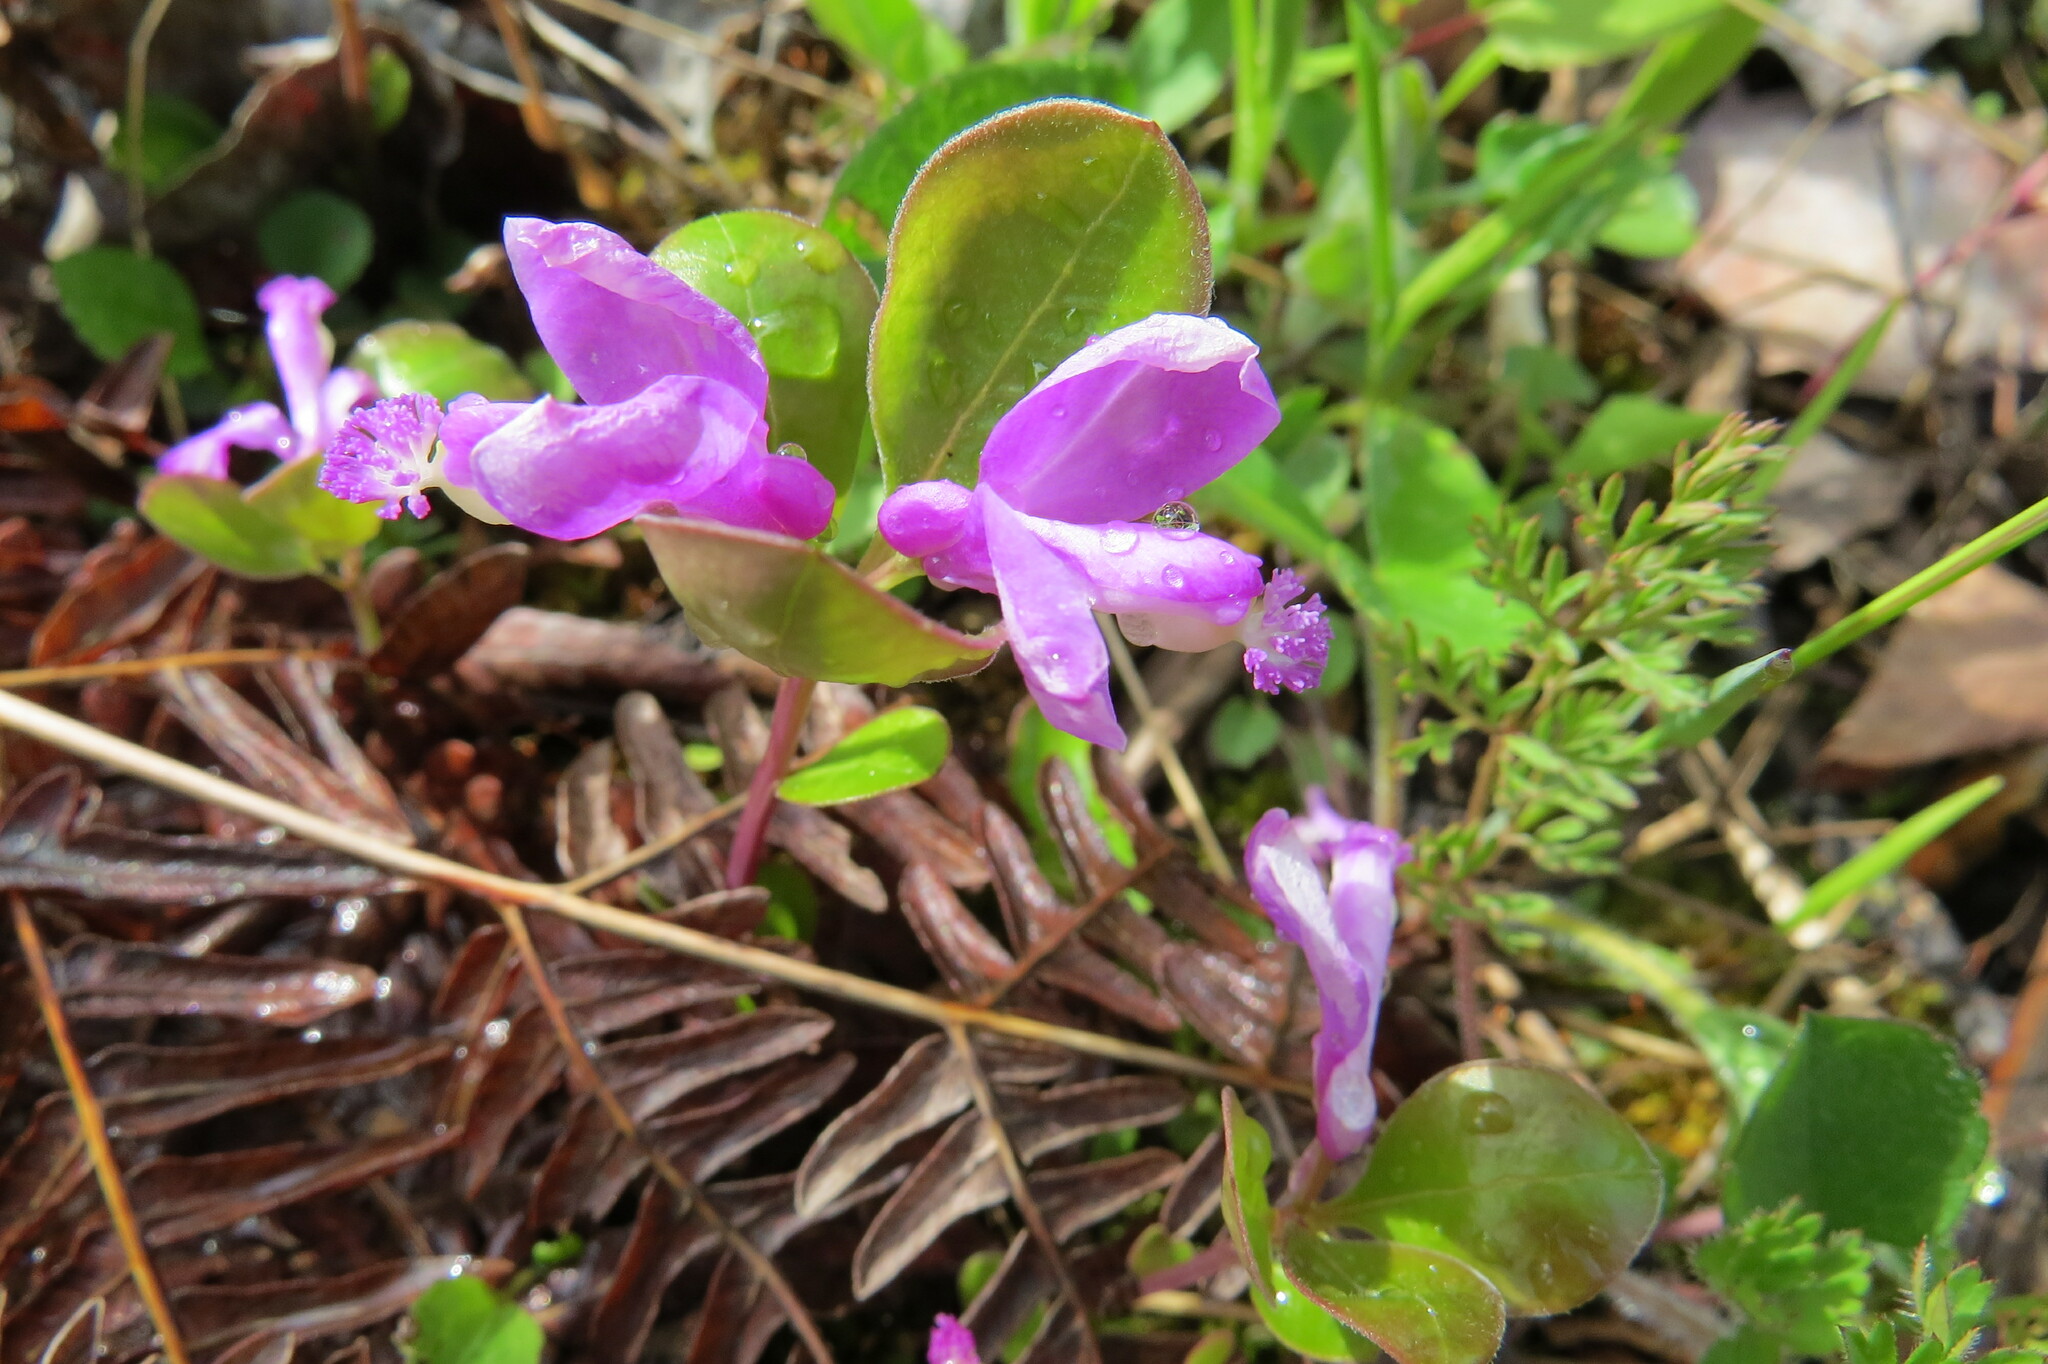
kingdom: Plantae
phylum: Tracheophyta
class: Magnoliopsida
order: Fabales
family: Polygalaceae
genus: Polygaloides
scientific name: Polygaloides paucifolia
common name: Bird-on-the-wing
